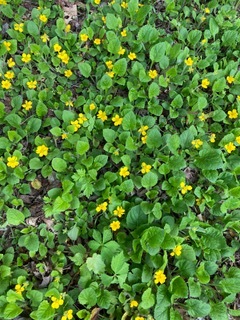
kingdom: Plantae
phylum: Tracheophyta
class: Magnoliopsida
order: Asterales
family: Asteraceae
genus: Chrysogonum
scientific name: Chrysogonum virginianum
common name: Golden-knee
